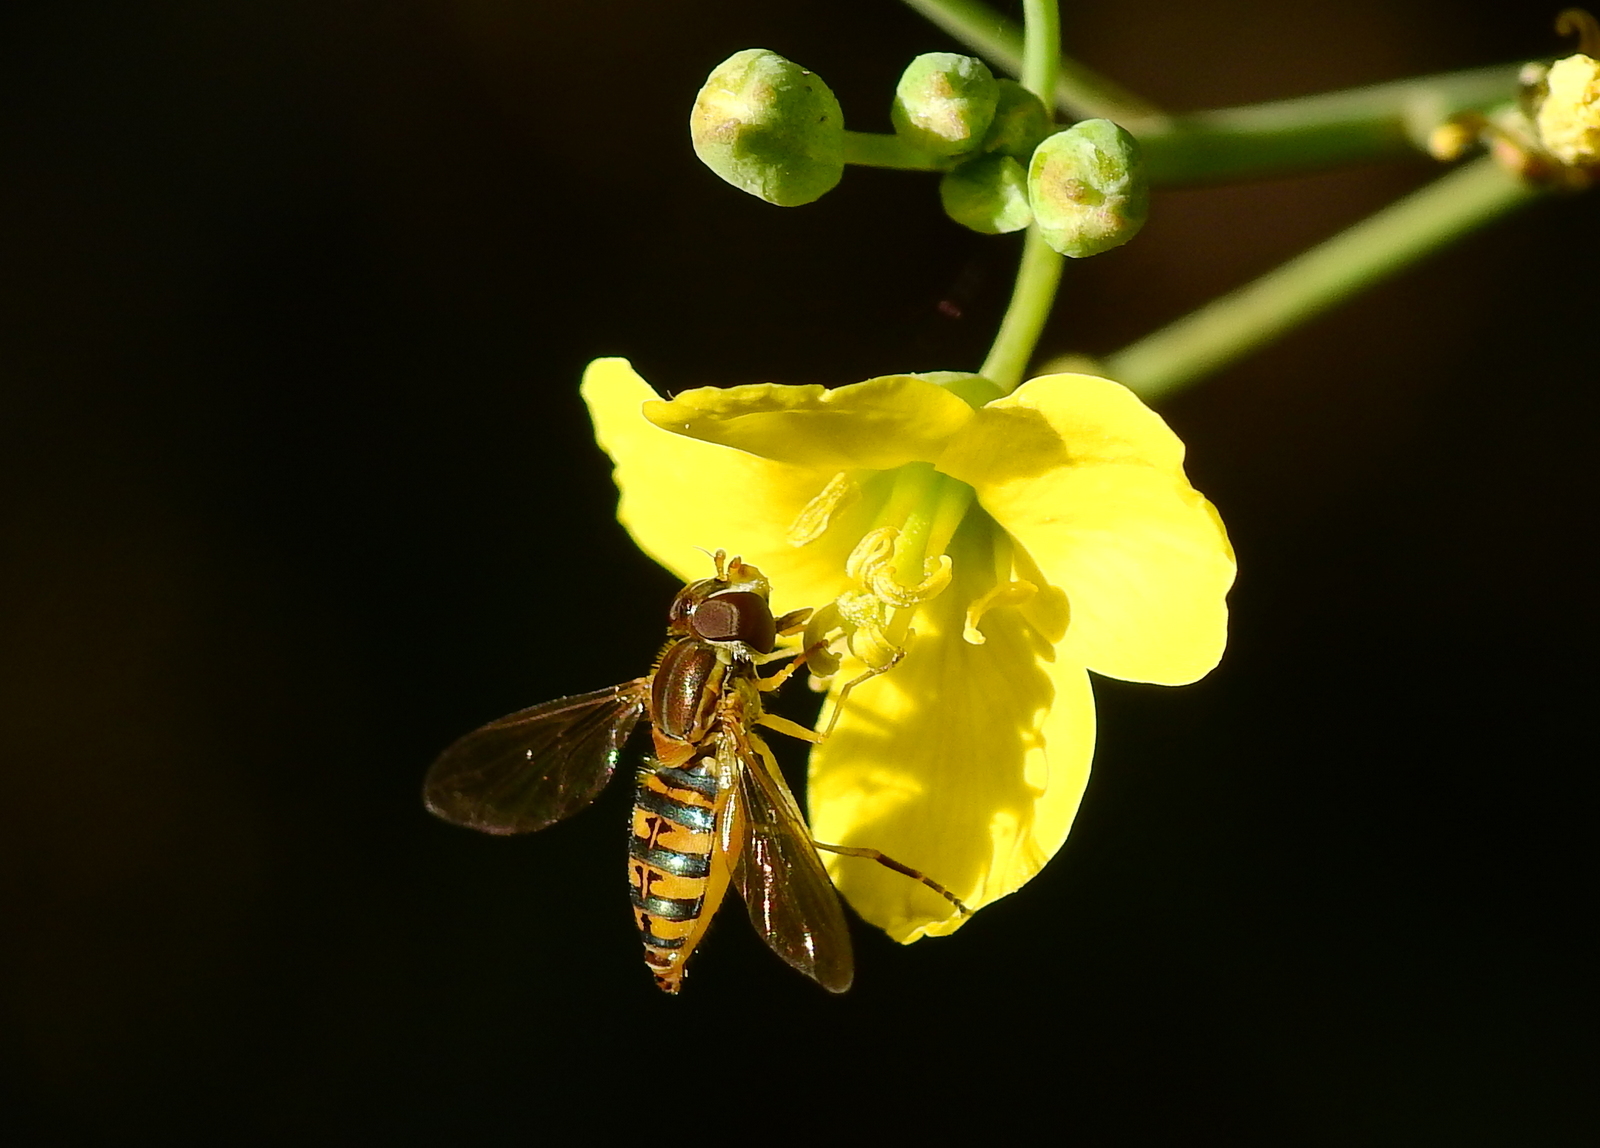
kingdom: Animalia
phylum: Arthropoda
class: Insecta
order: Diptera
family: Syrphidae
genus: Toxomerus
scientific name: Toxomerus
